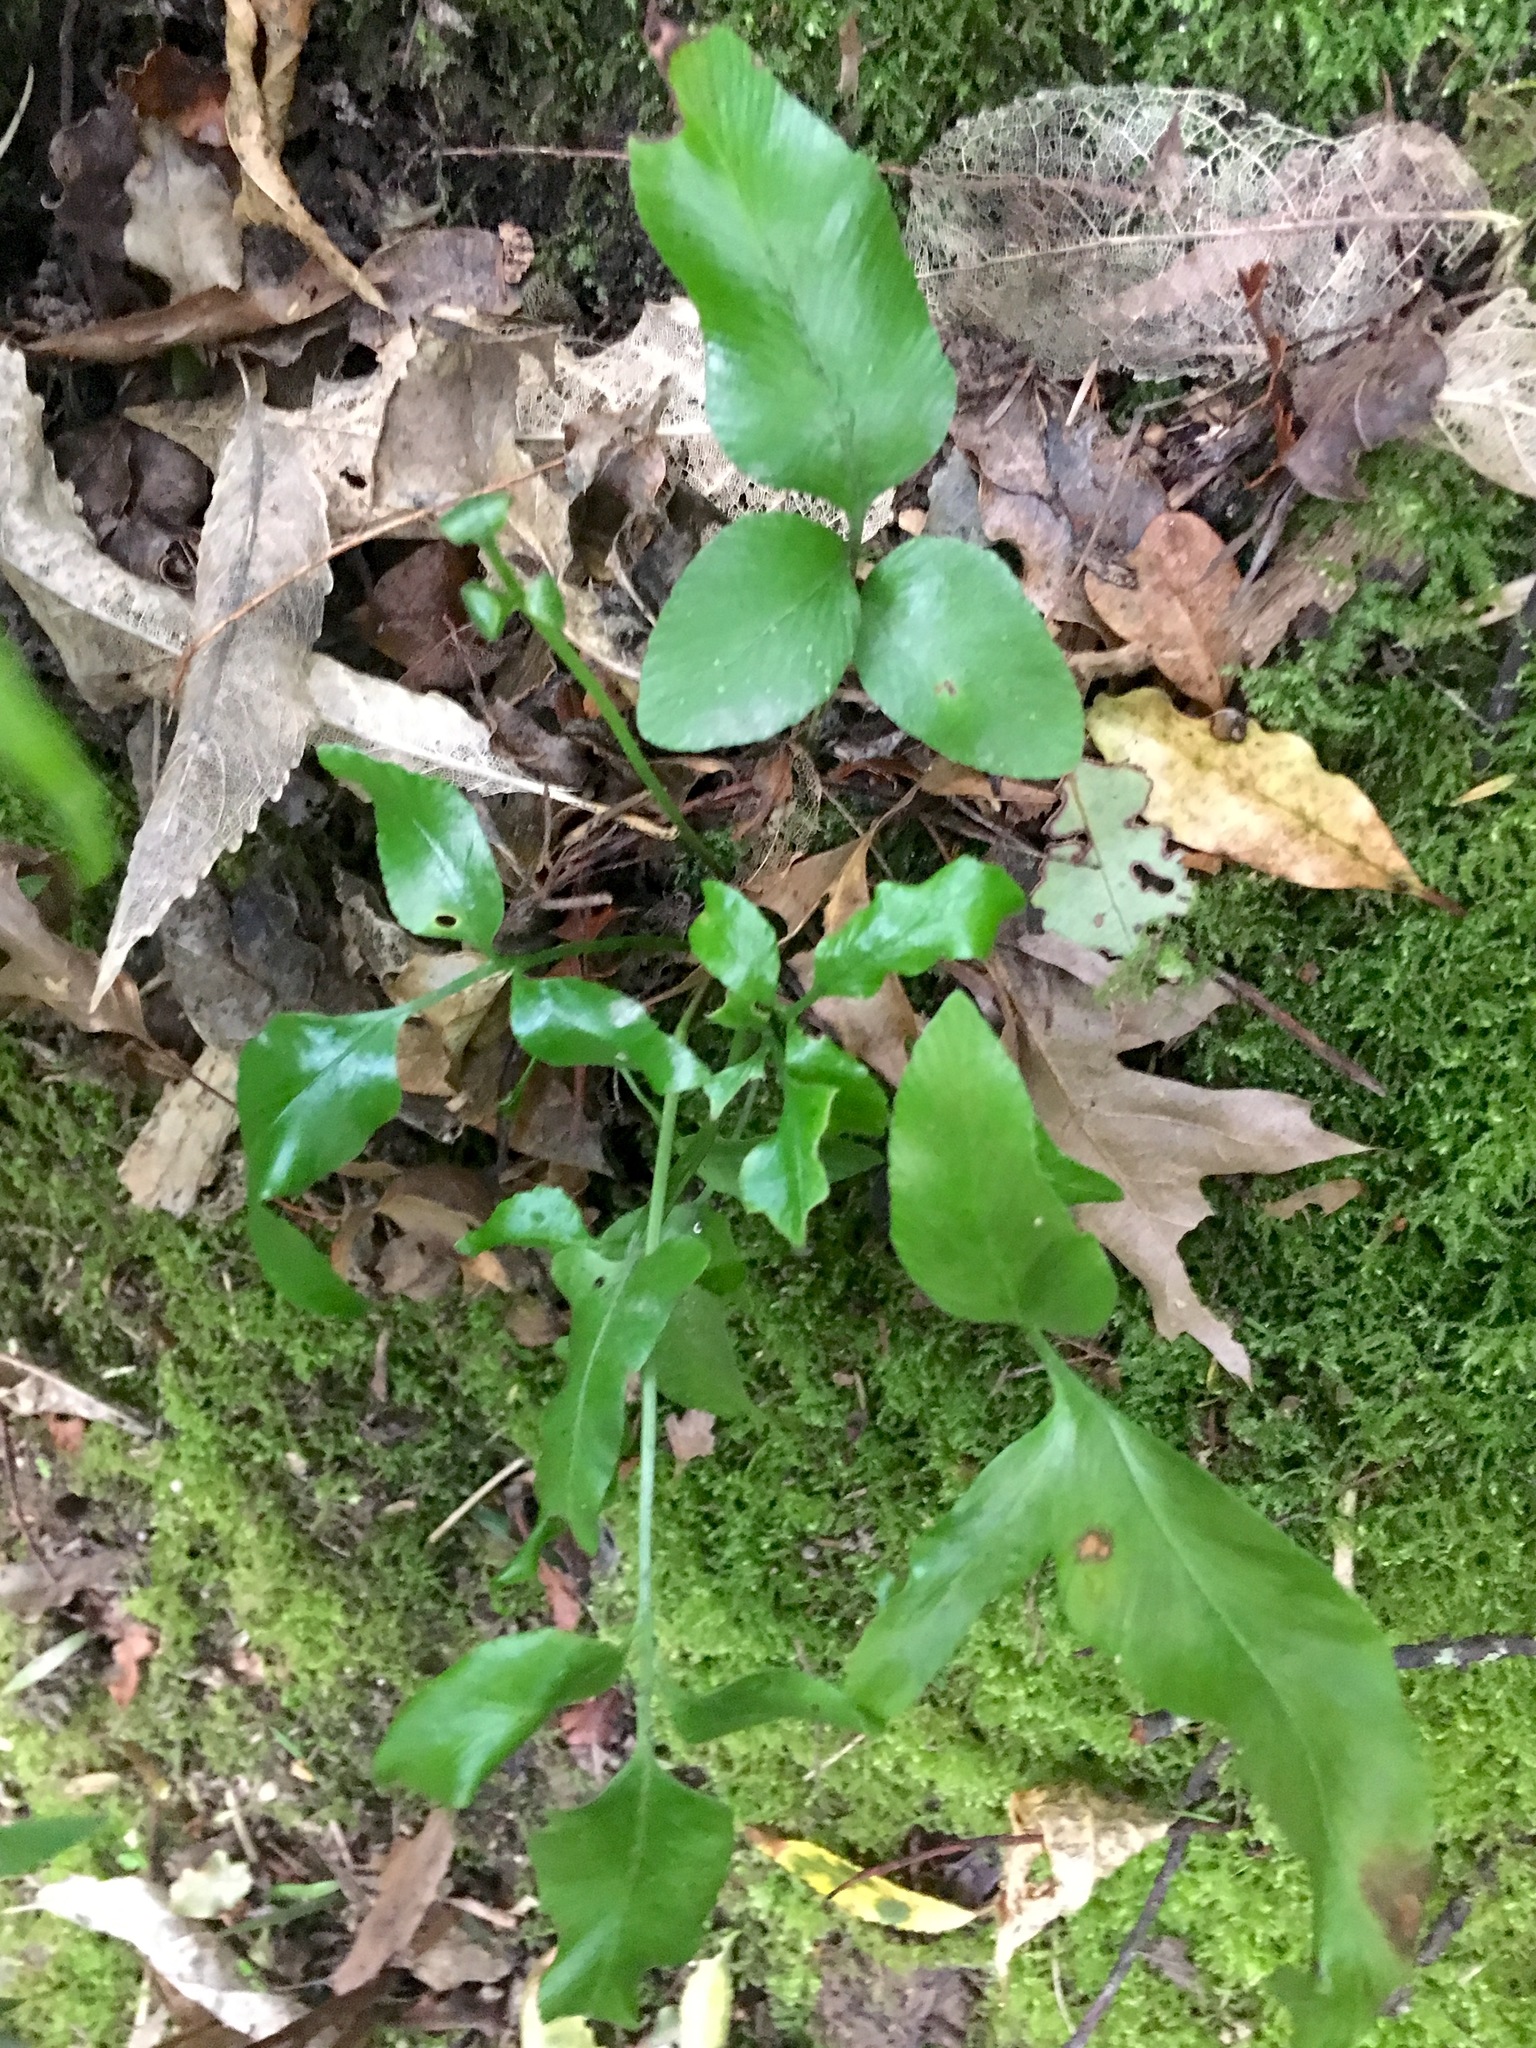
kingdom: Plantae
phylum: Tracheophyta
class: Polypodiopsida
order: Polypodiales
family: Aspleniaceae
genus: Asplenium
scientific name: Asplenium oblongifolium
